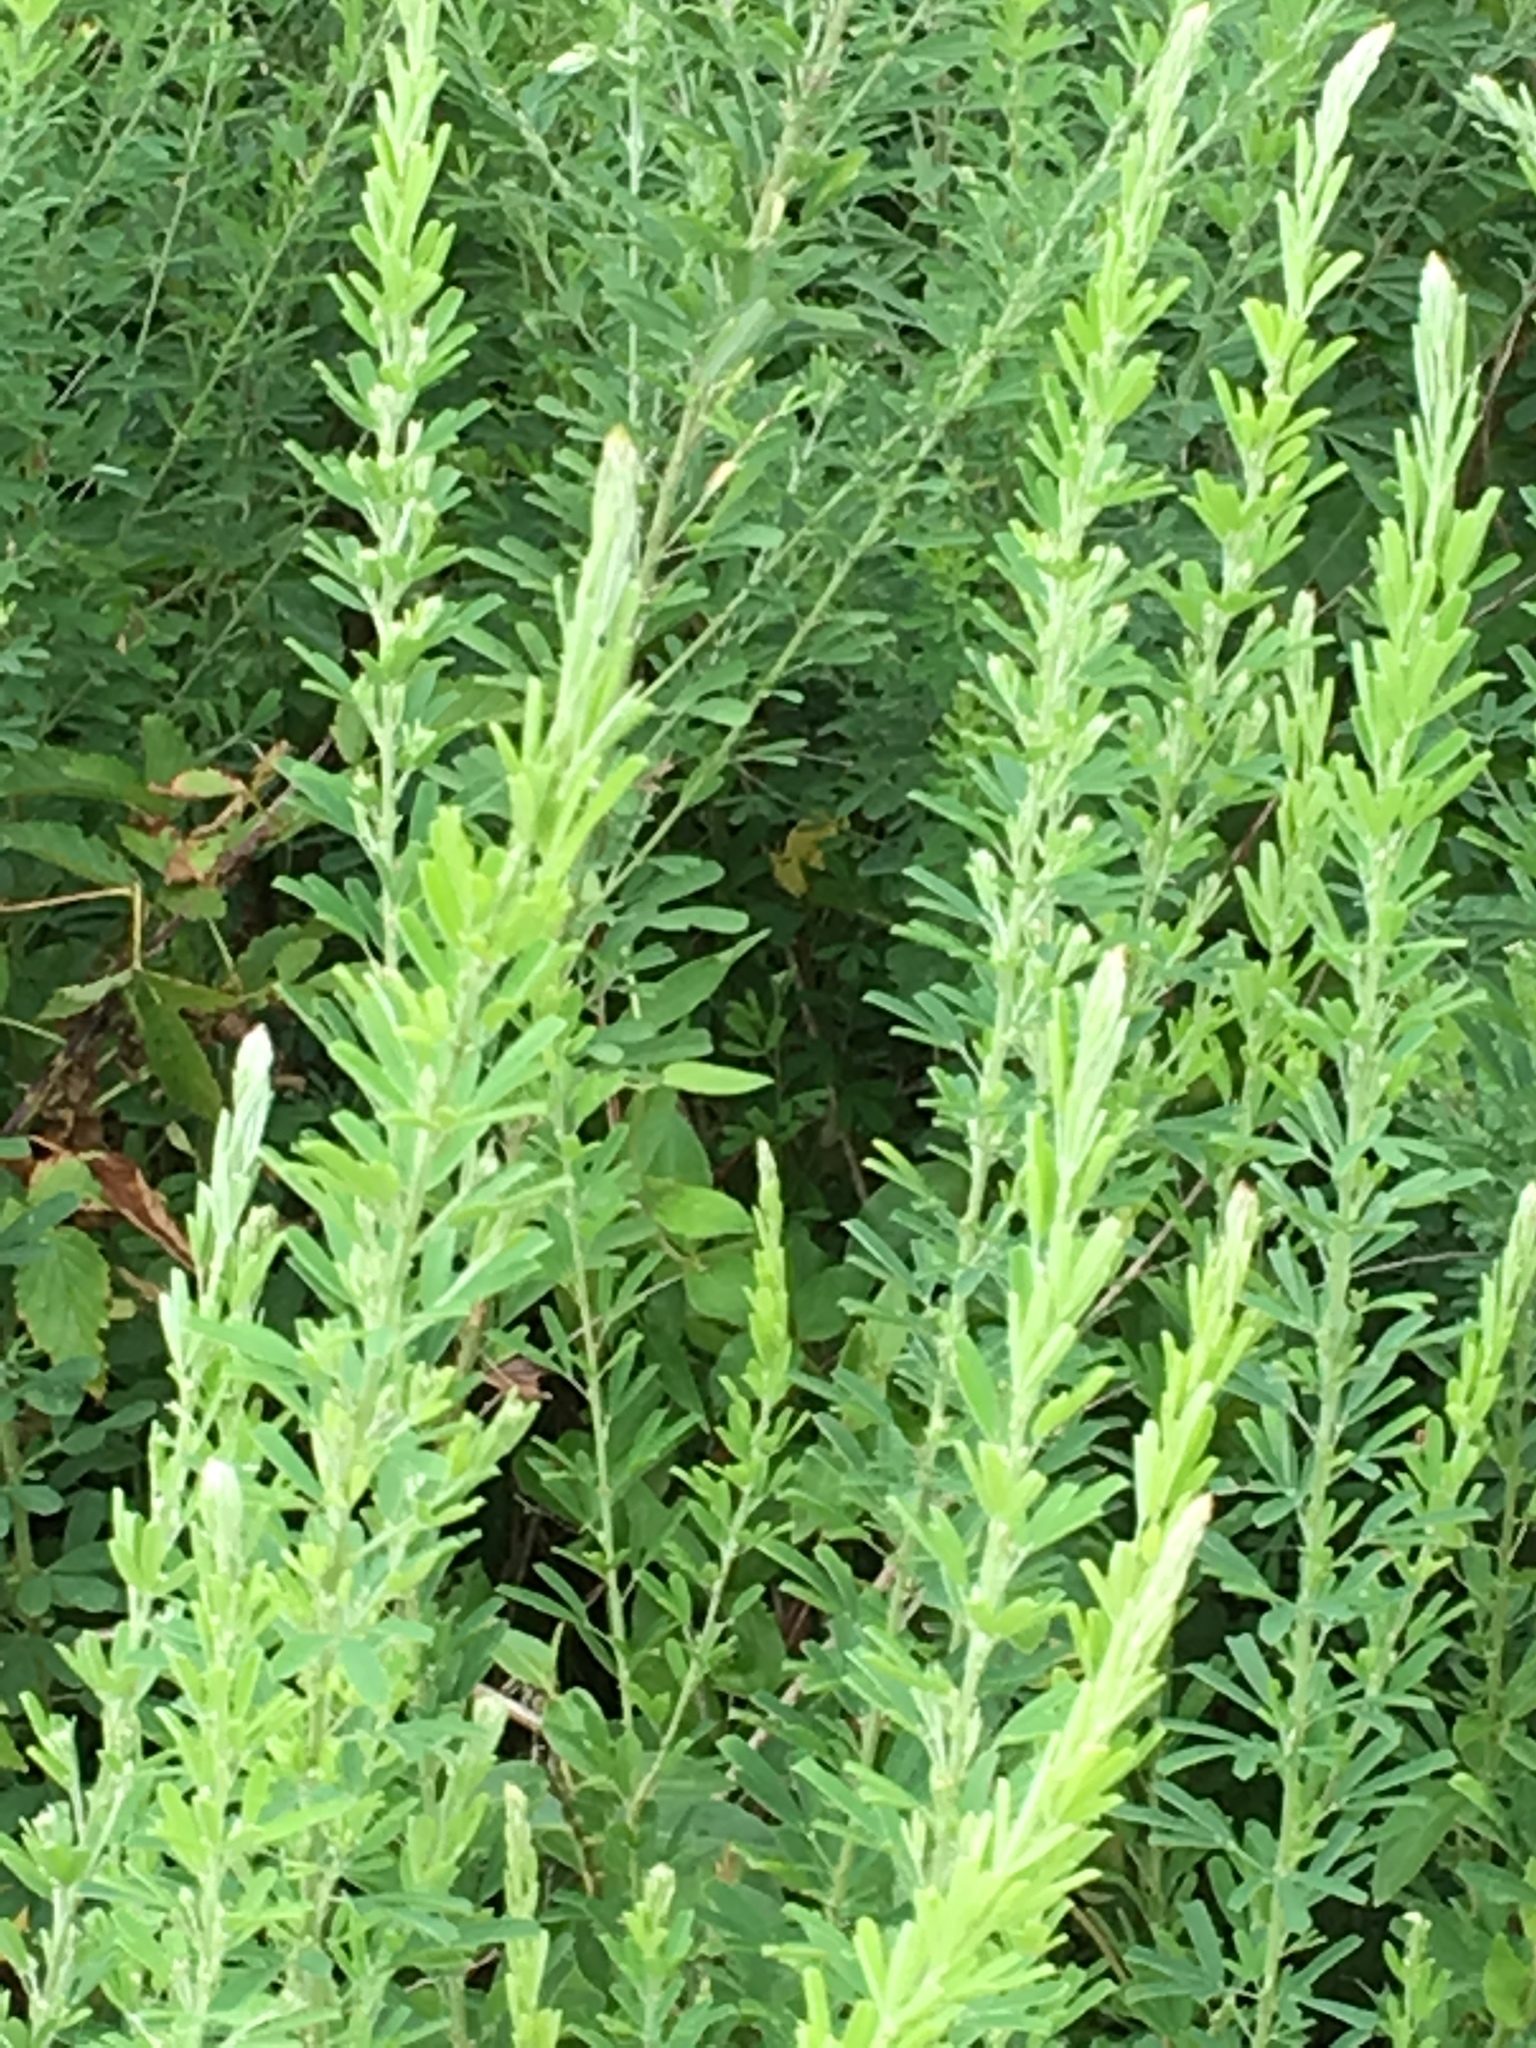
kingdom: Plantae
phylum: Tracheophyta
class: Magnoliopsida
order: Fabales
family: Fabaceae
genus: Lespedeza
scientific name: Lespedeza cuneata
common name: Chinese bush-clover
